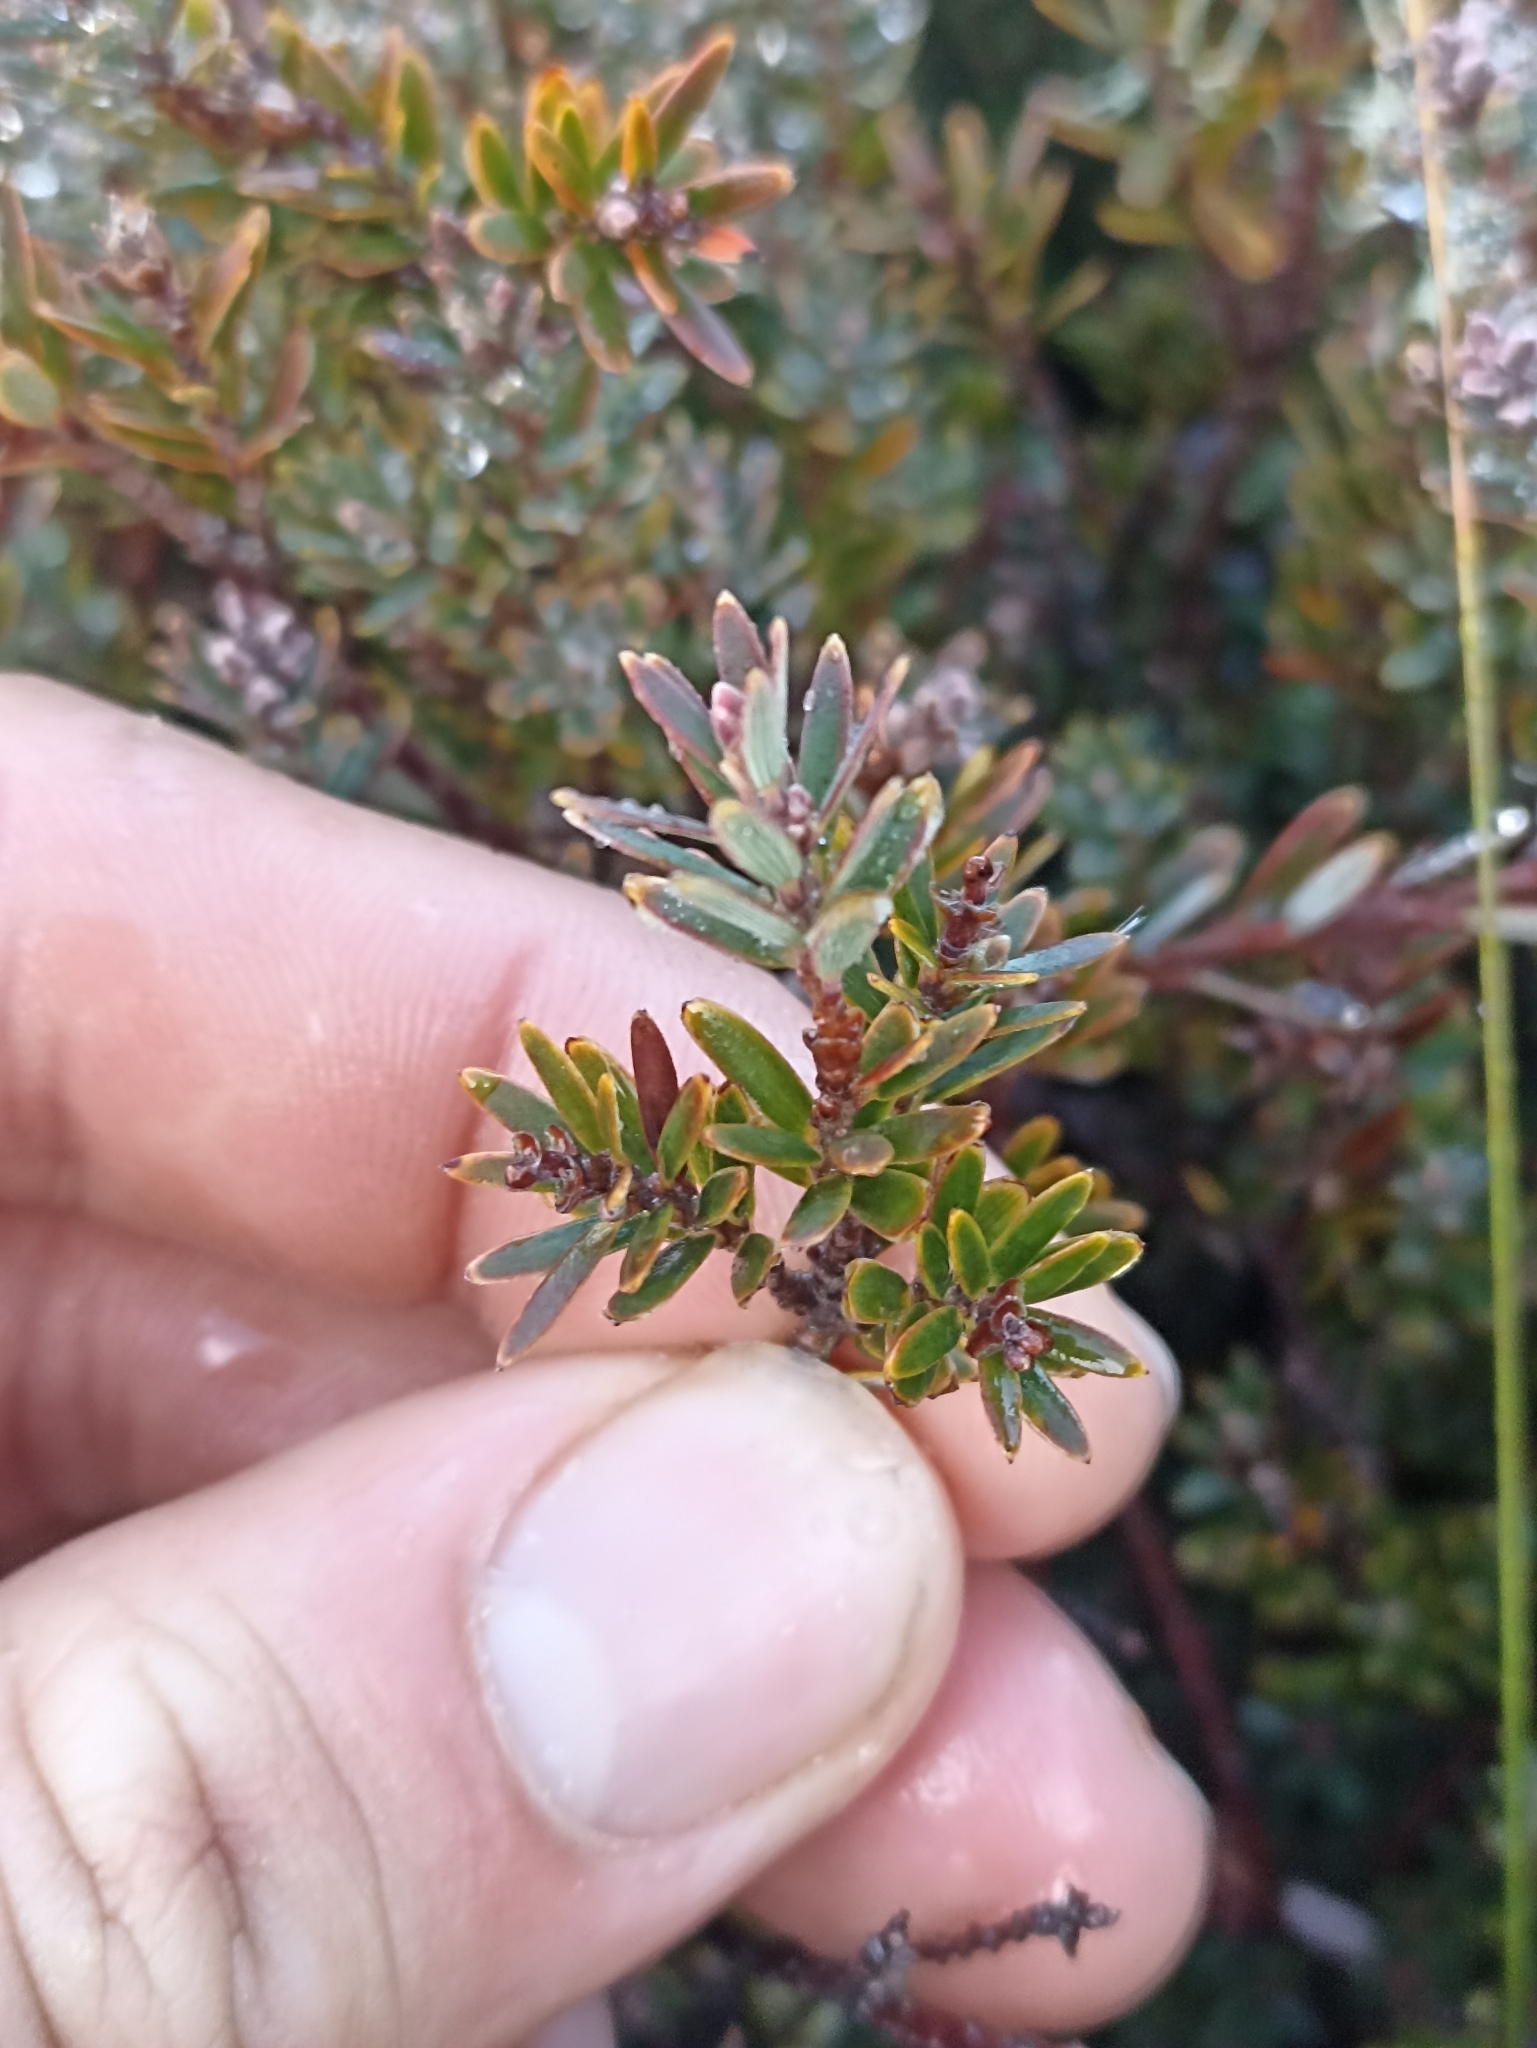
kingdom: Plantae
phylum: Tracheophyta
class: Magnoliopsida
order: Ericales
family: Ericaceae
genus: Acrothamnus
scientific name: Acrothamnus colensoi
